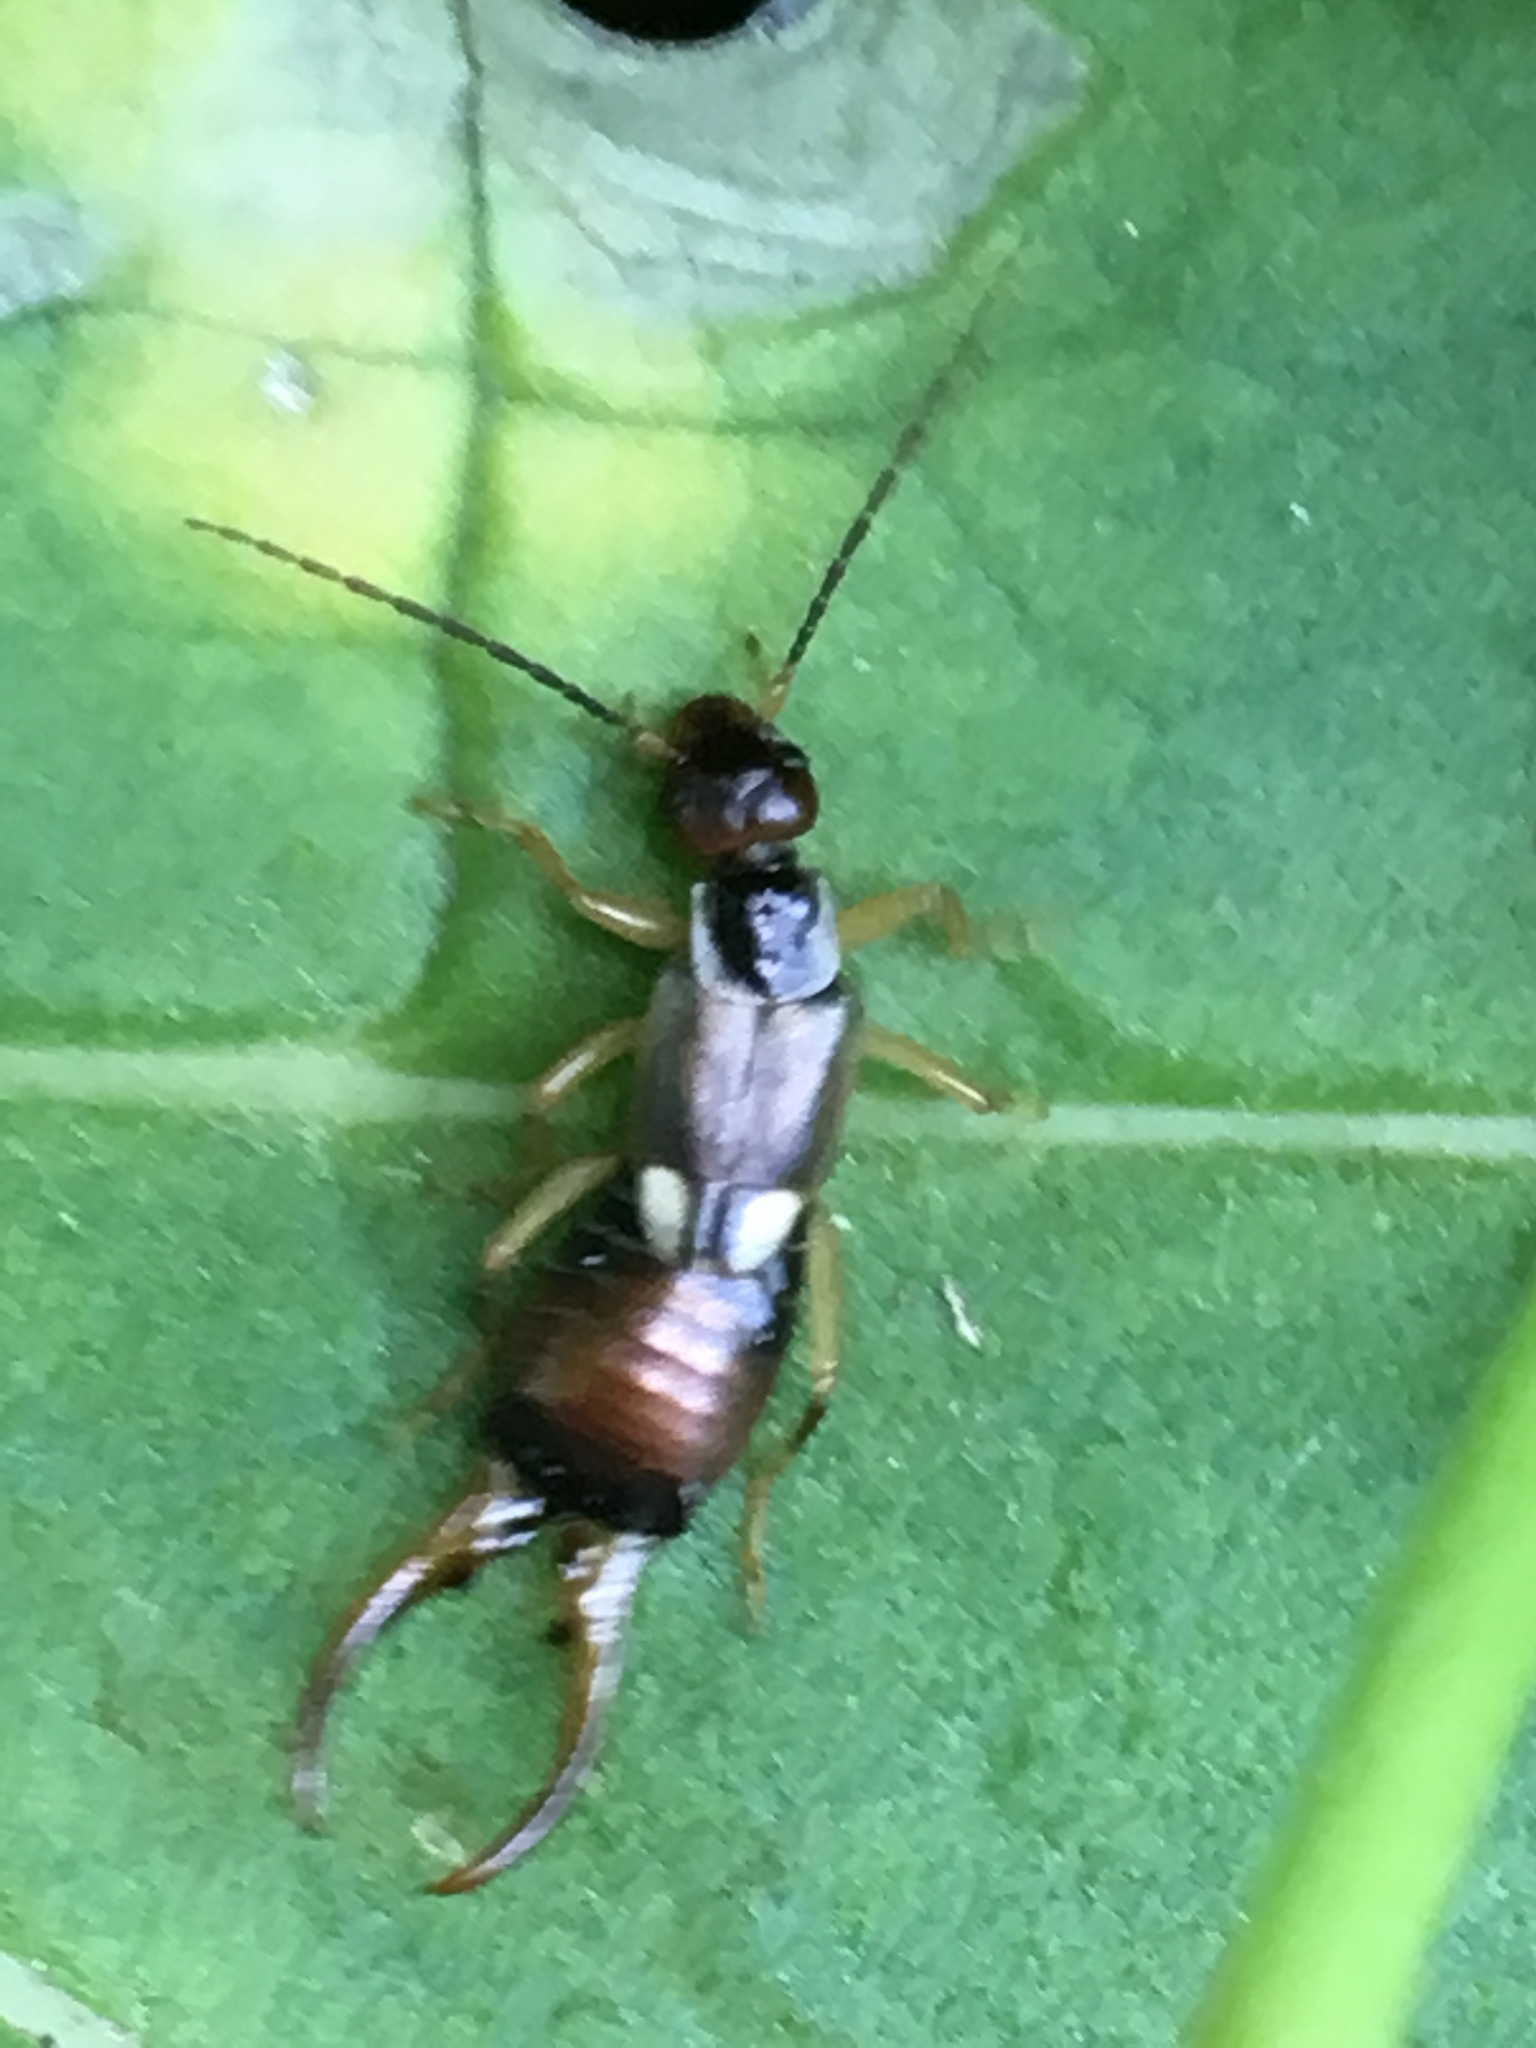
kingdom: Animalia
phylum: Arthropoda
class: Insecta
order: Dermaptera
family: Forficulidae
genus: Forficula
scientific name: Forficula
